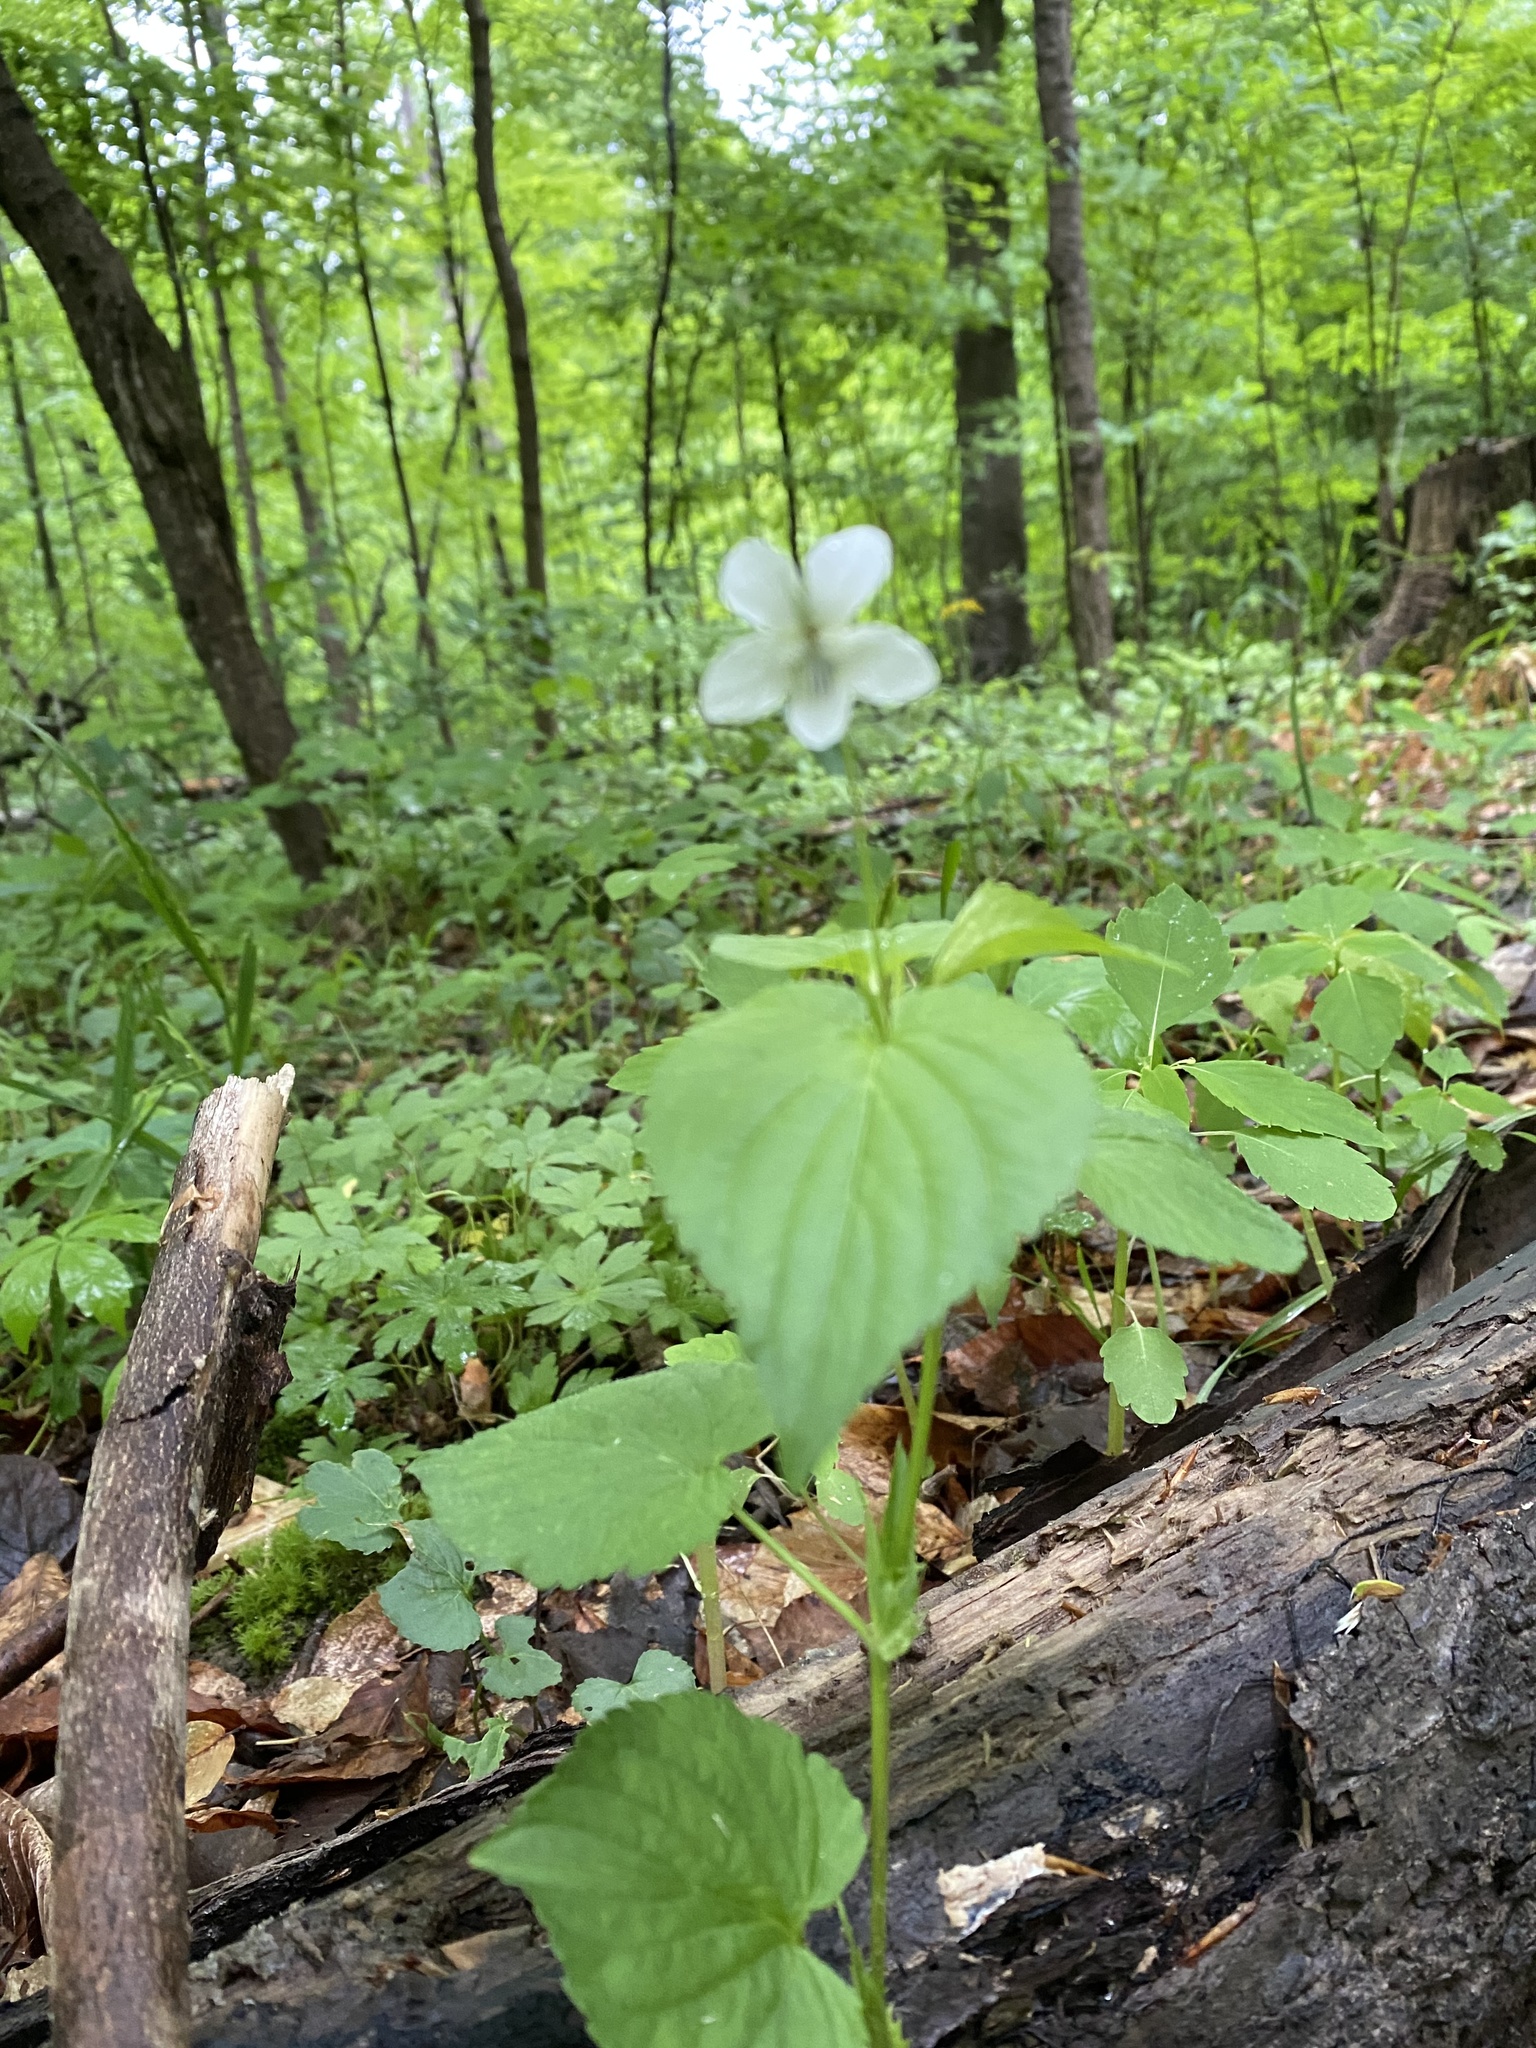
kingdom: Plantae
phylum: Tracheophyta
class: Magnoliopsida
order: Malpighiales
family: Violaceae
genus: Viola
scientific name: Viola striata
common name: Cream violet
